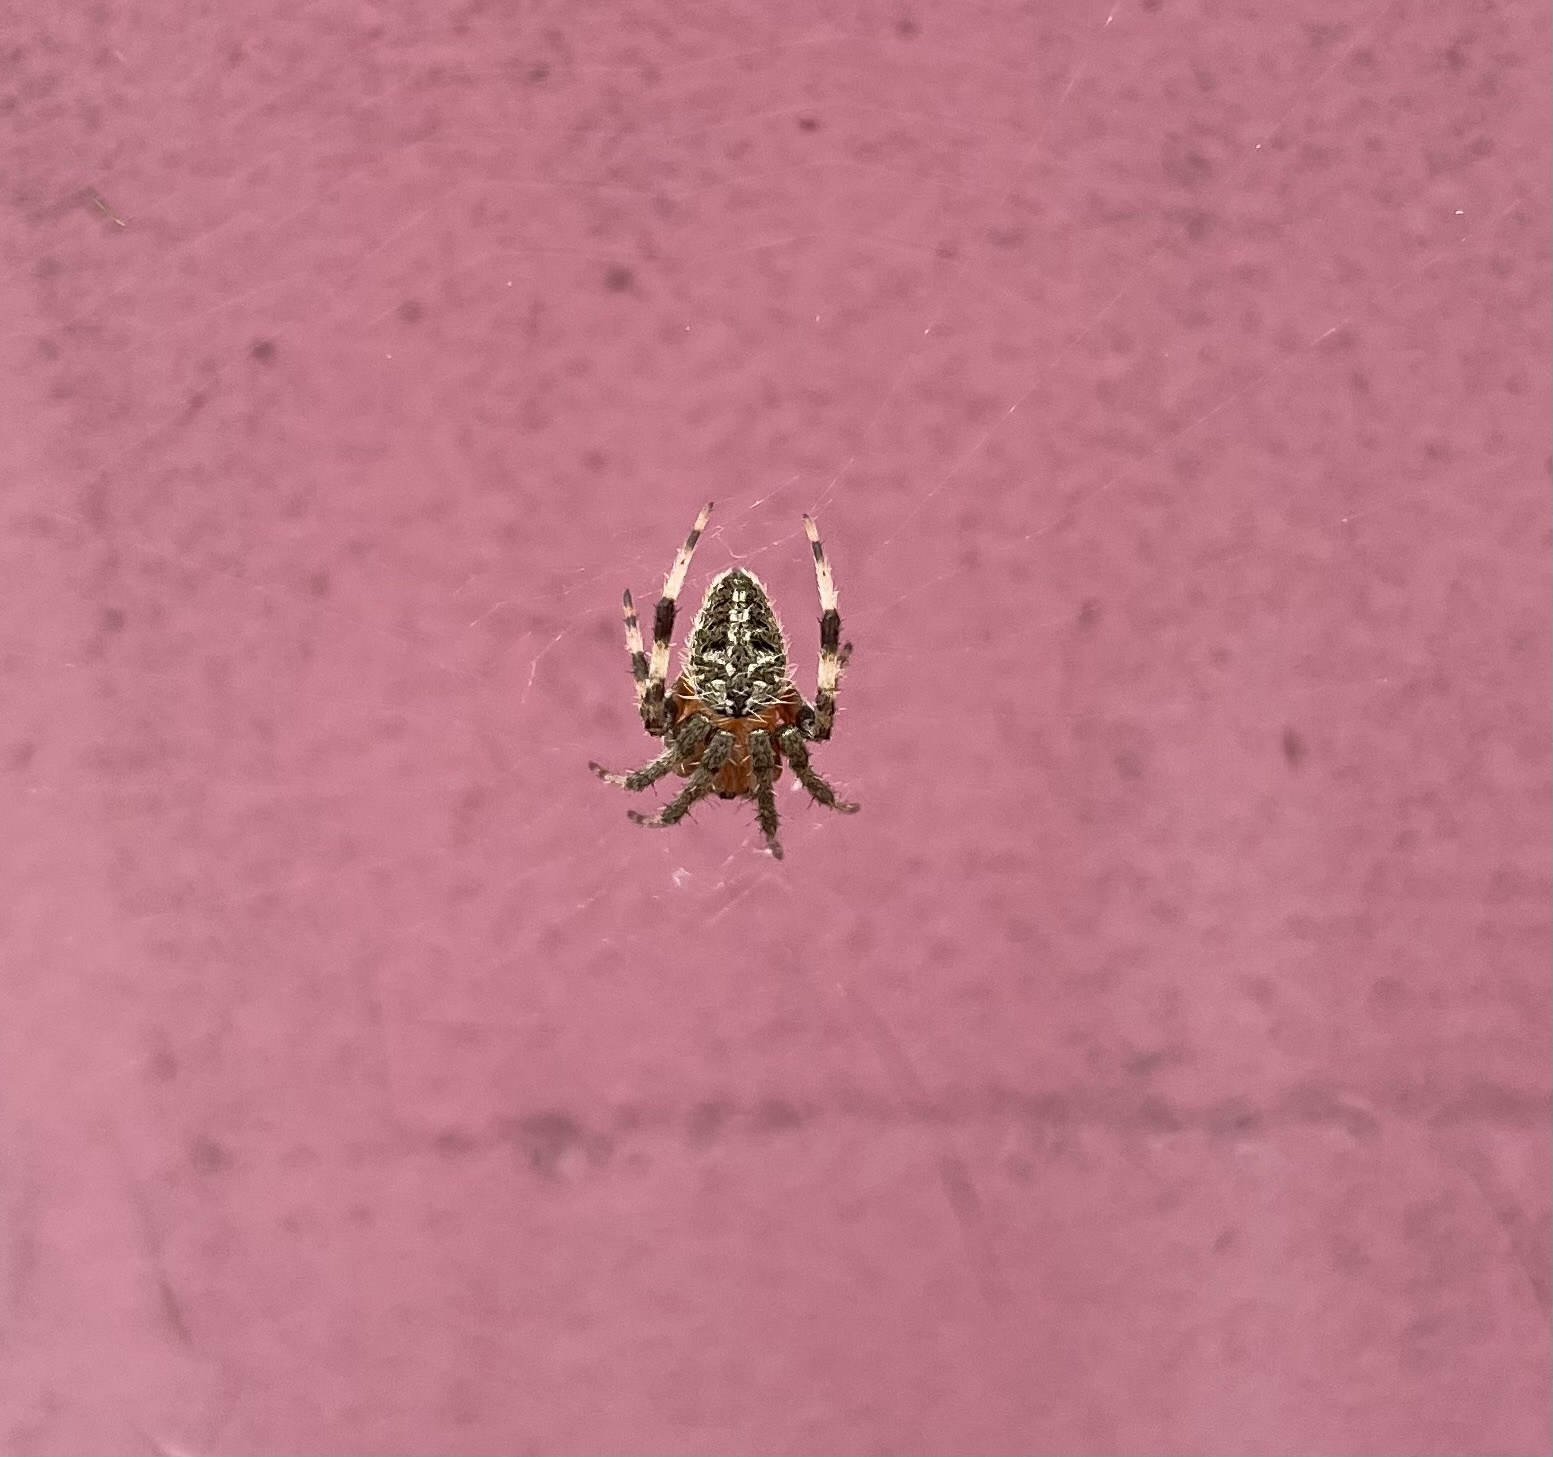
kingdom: Animalia
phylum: Arthropoda
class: Arachnida
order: Araneae
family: Araneidae
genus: Neoscona
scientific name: Neoscona crucifera
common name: Spotted orbweaver
